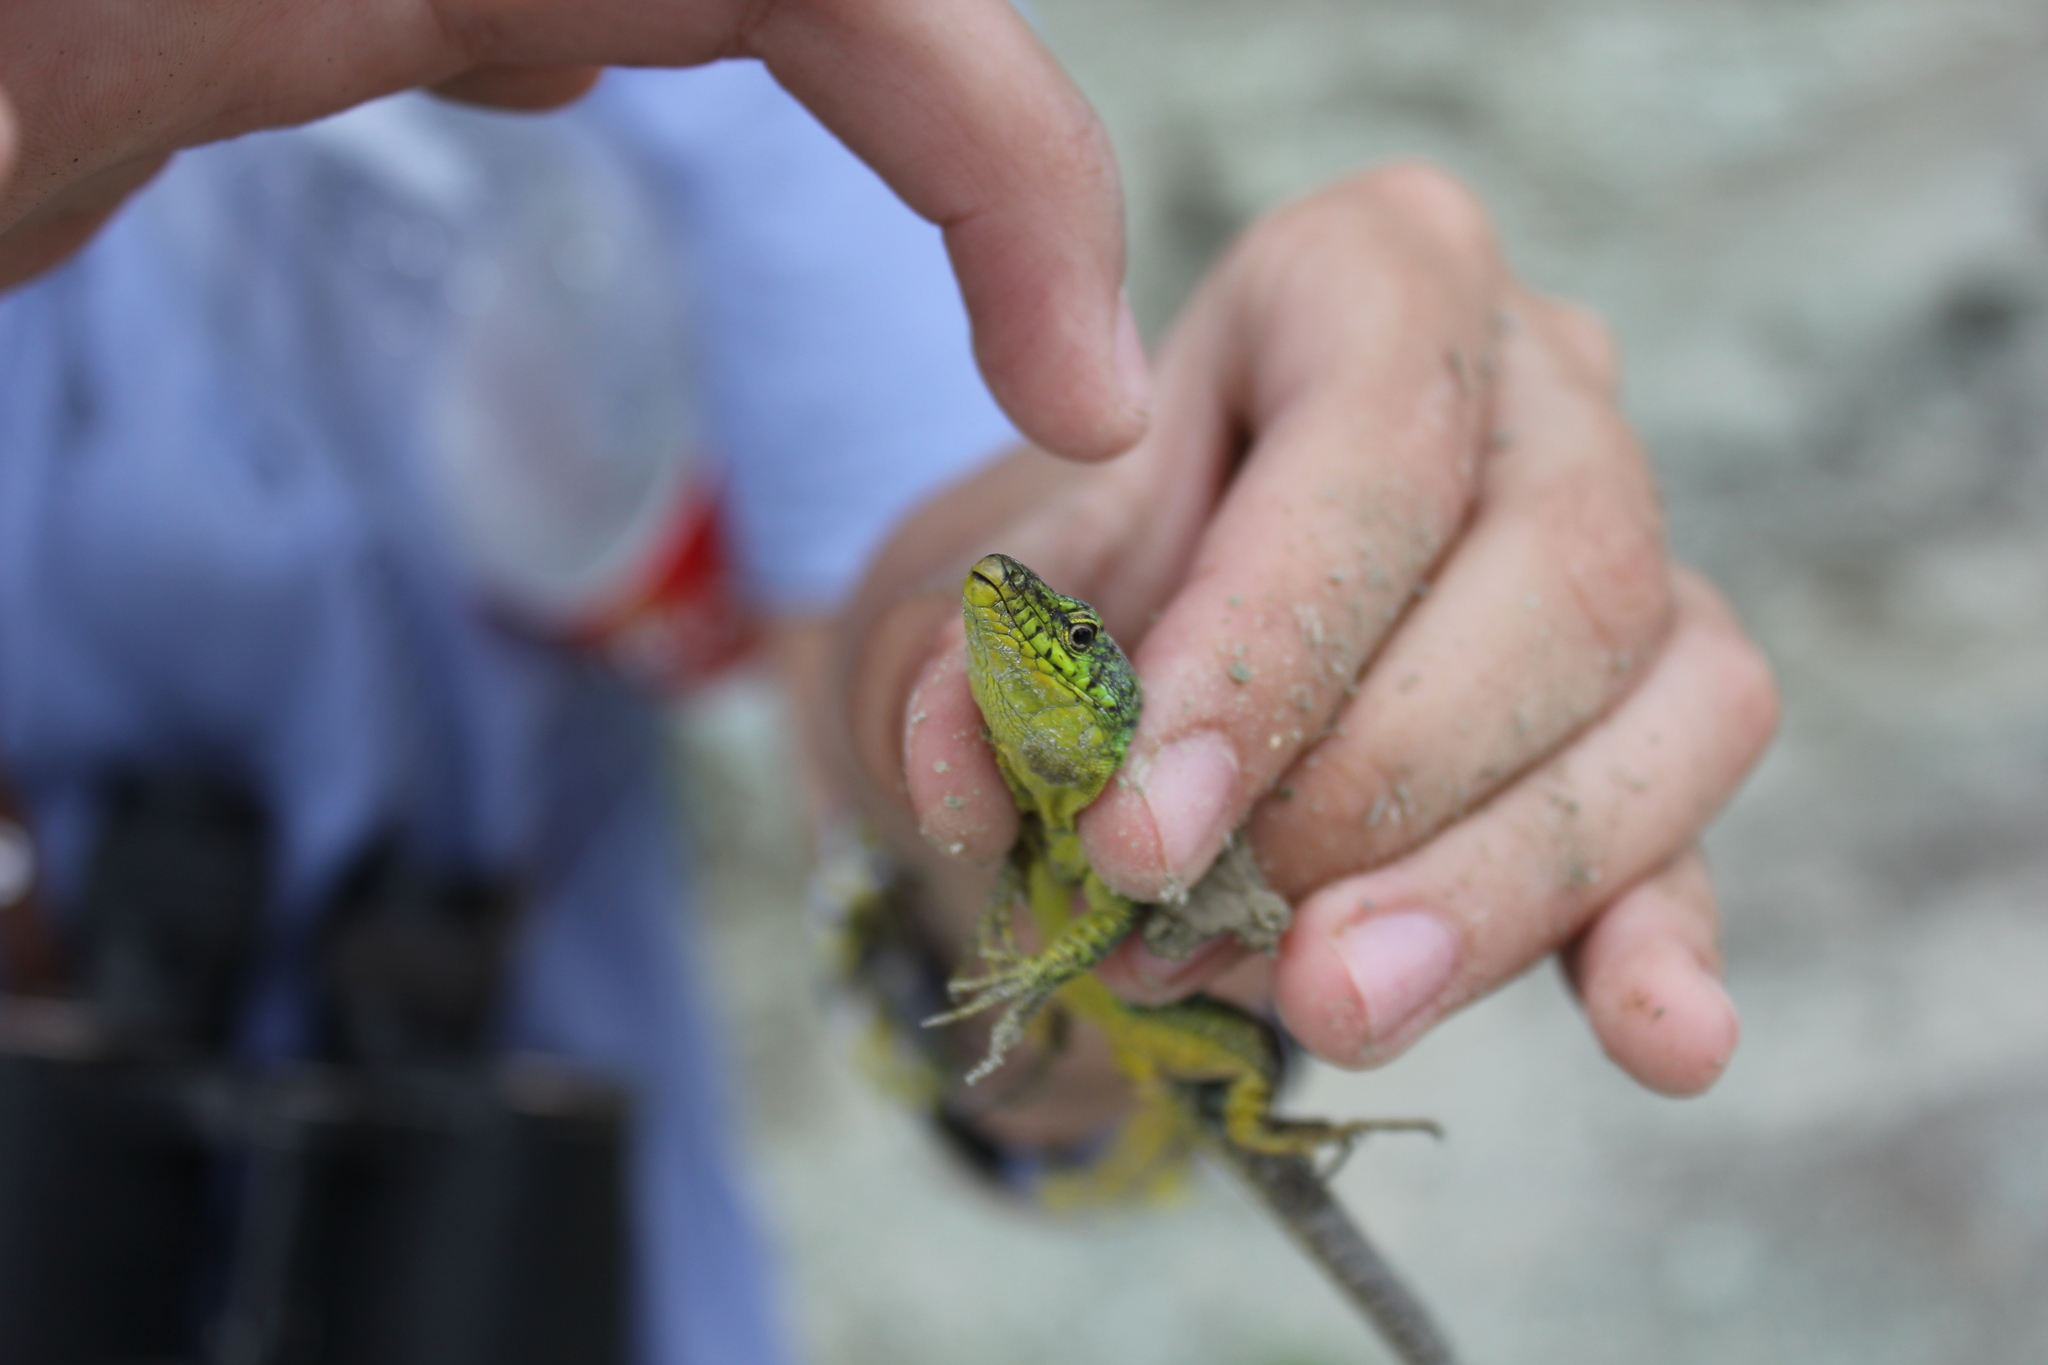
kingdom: Animalia
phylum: Chordata
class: Squamata
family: Lacertidae
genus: Darevskia
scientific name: Darevskia brauneri
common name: Brauner's rock lizard
